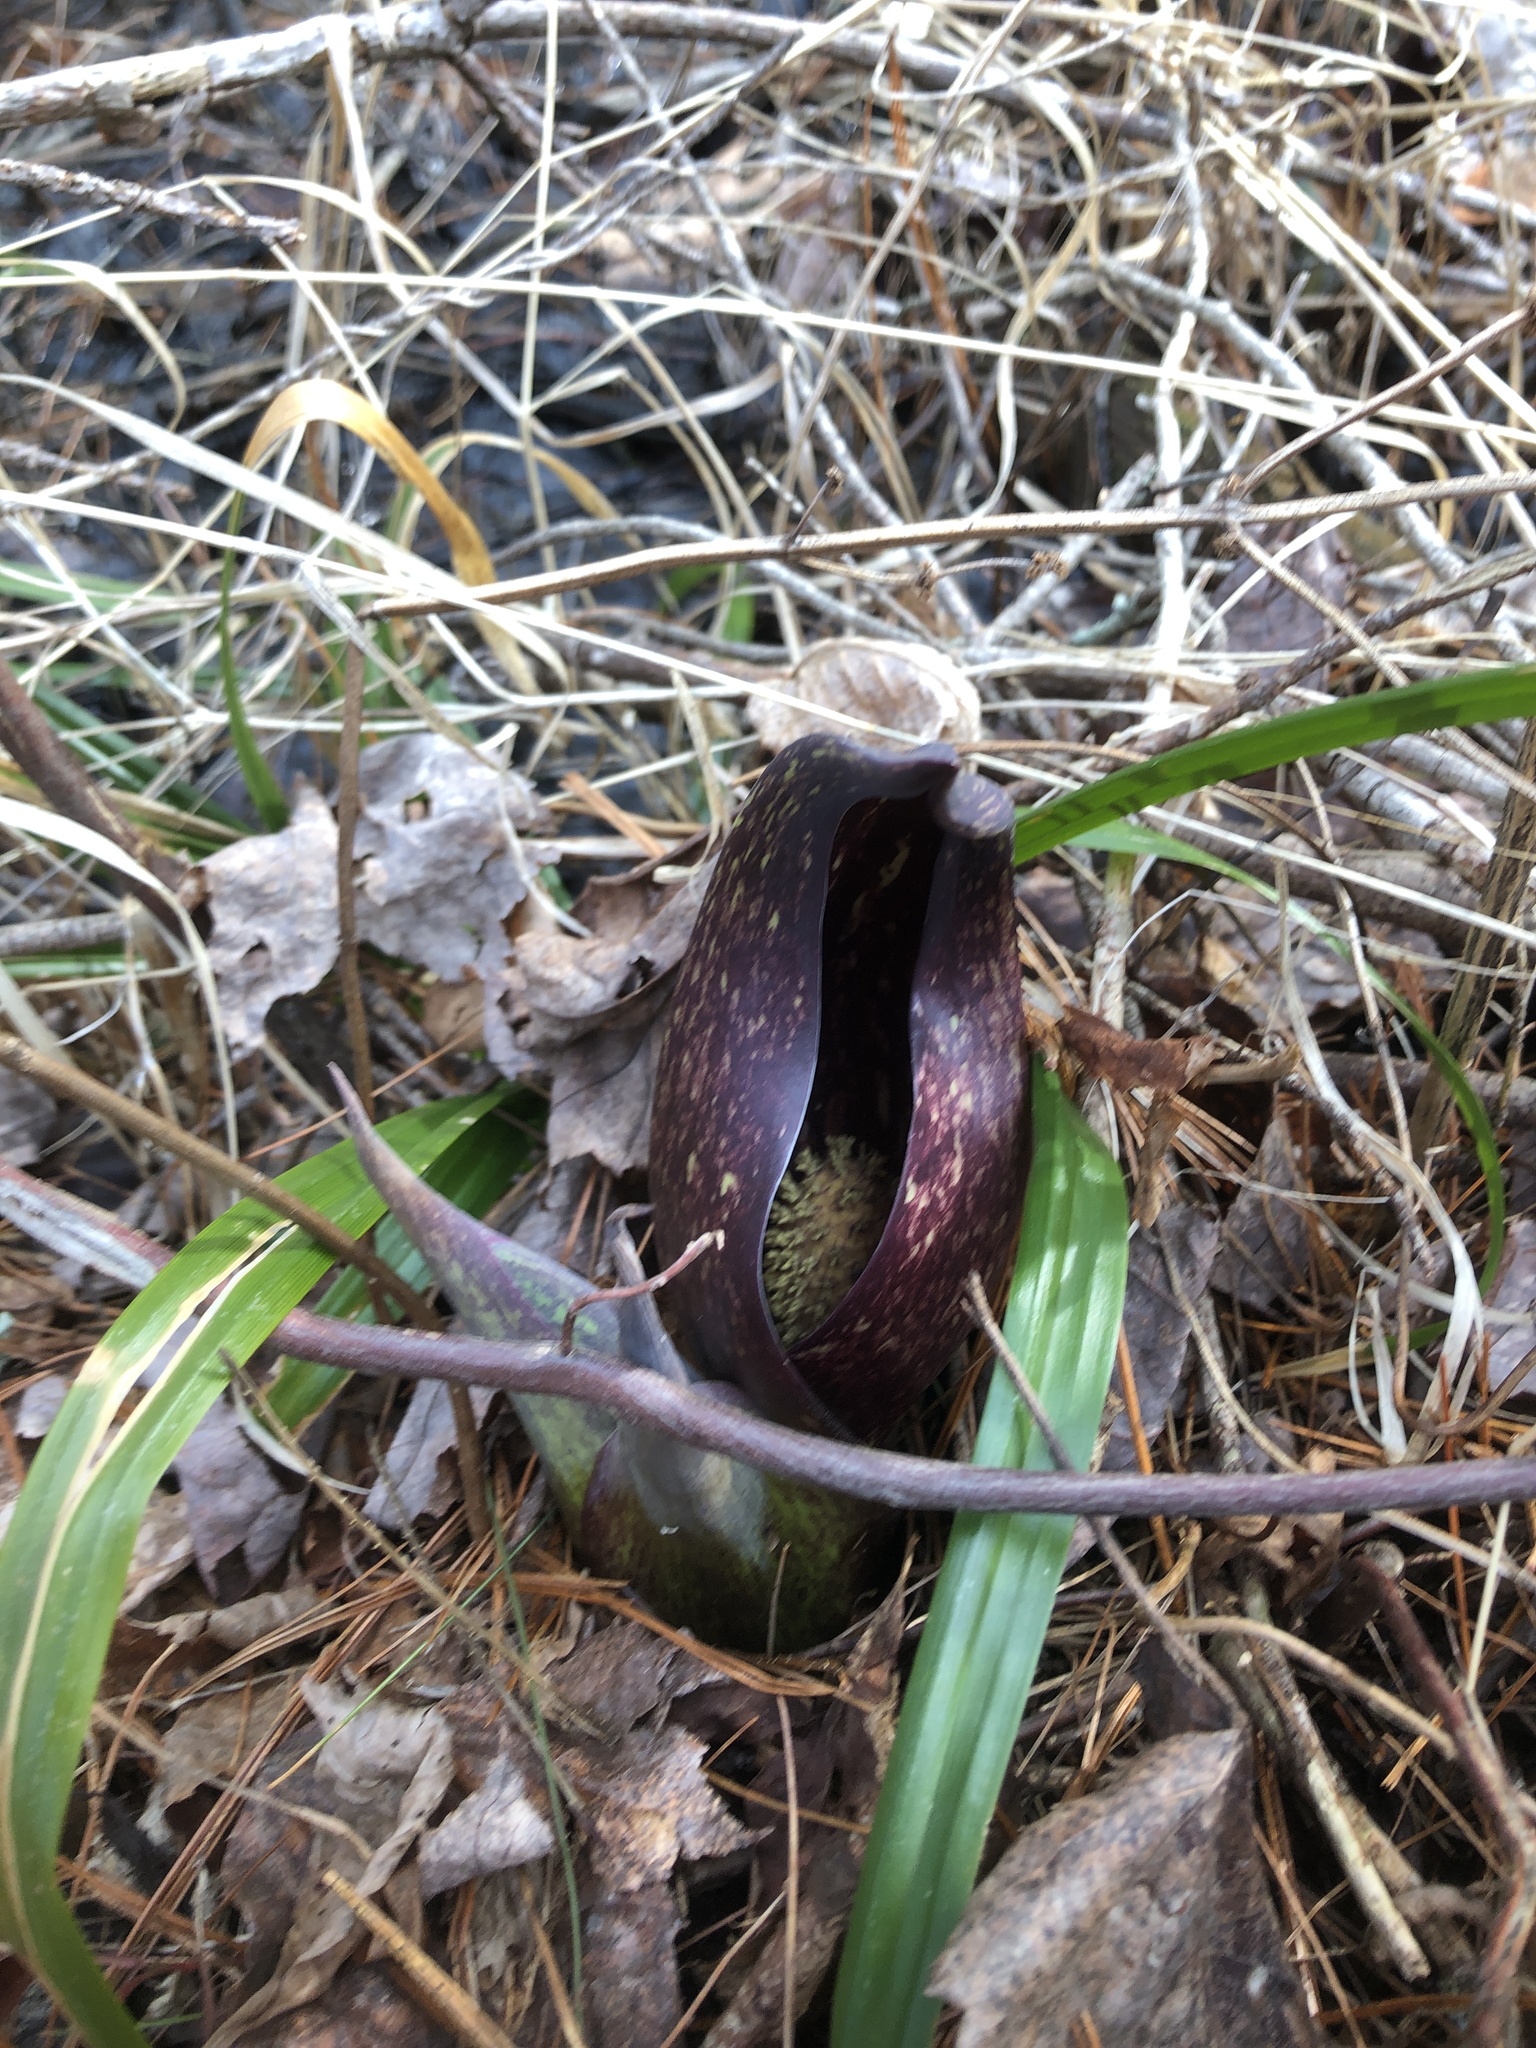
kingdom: Plantae
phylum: Tracheophyta
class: Liliopsida
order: Alismatales
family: Araceae
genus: Symplocarpus
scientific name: Symplocarpus foetidus
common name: Eastern skunk cabbage
